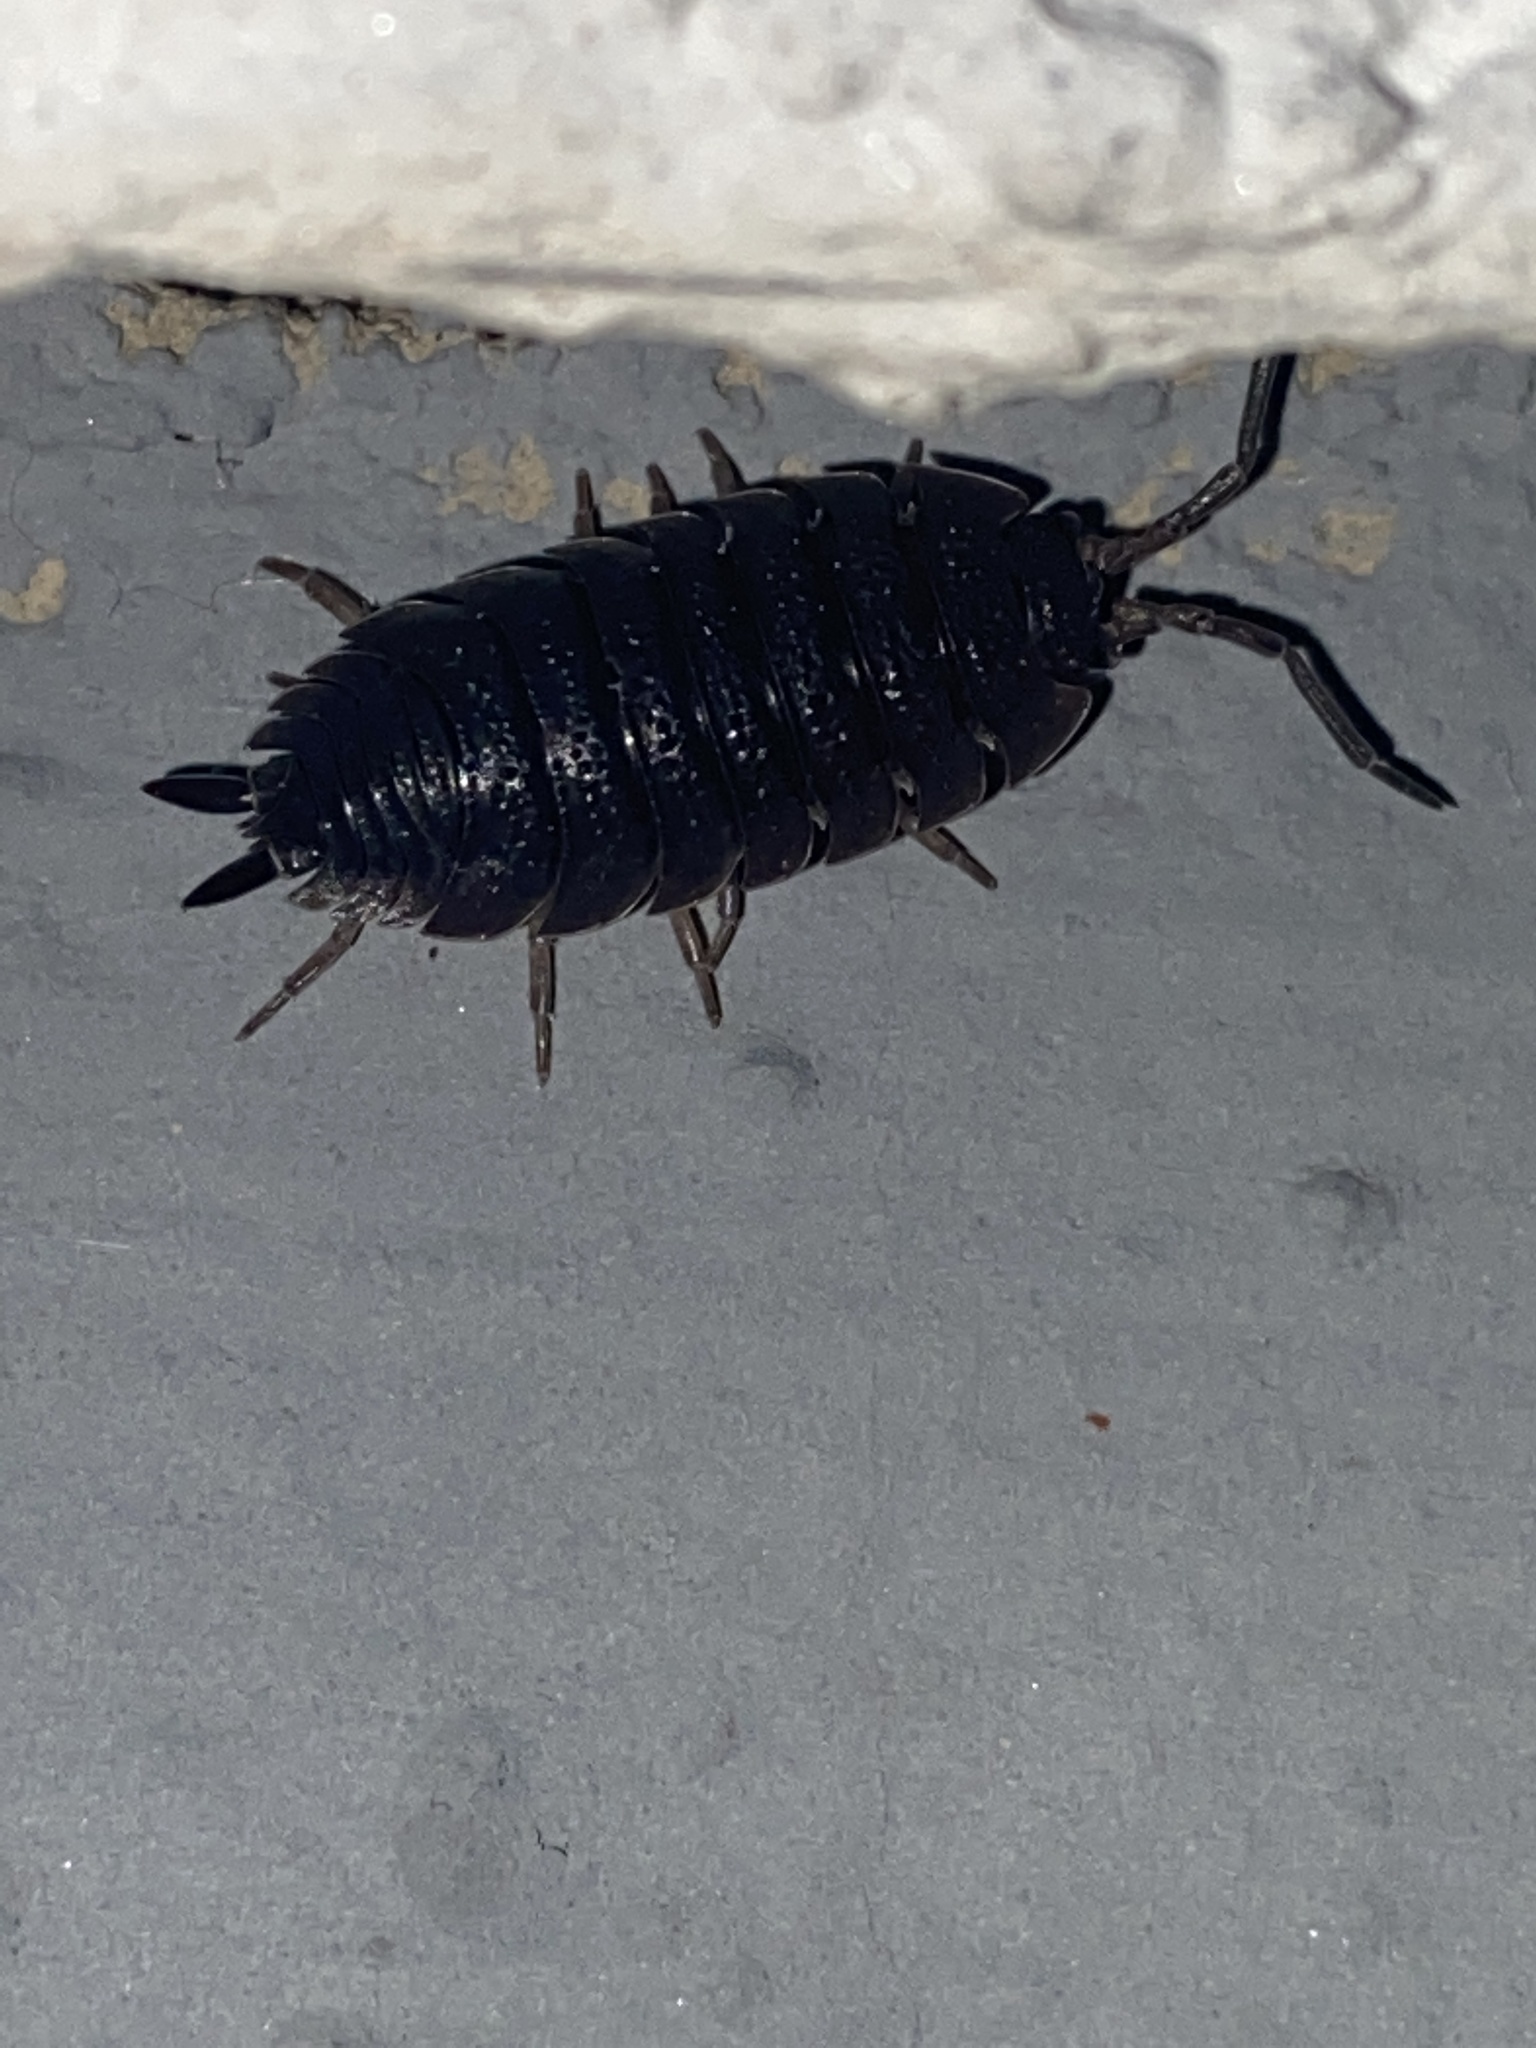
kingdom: Animalia
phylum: Arthropoda
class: Malacostraca
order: Isopoda
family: Porcellionidae
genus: Porcellio
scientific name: Porcellio scaber
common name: Common rough woodlouse
